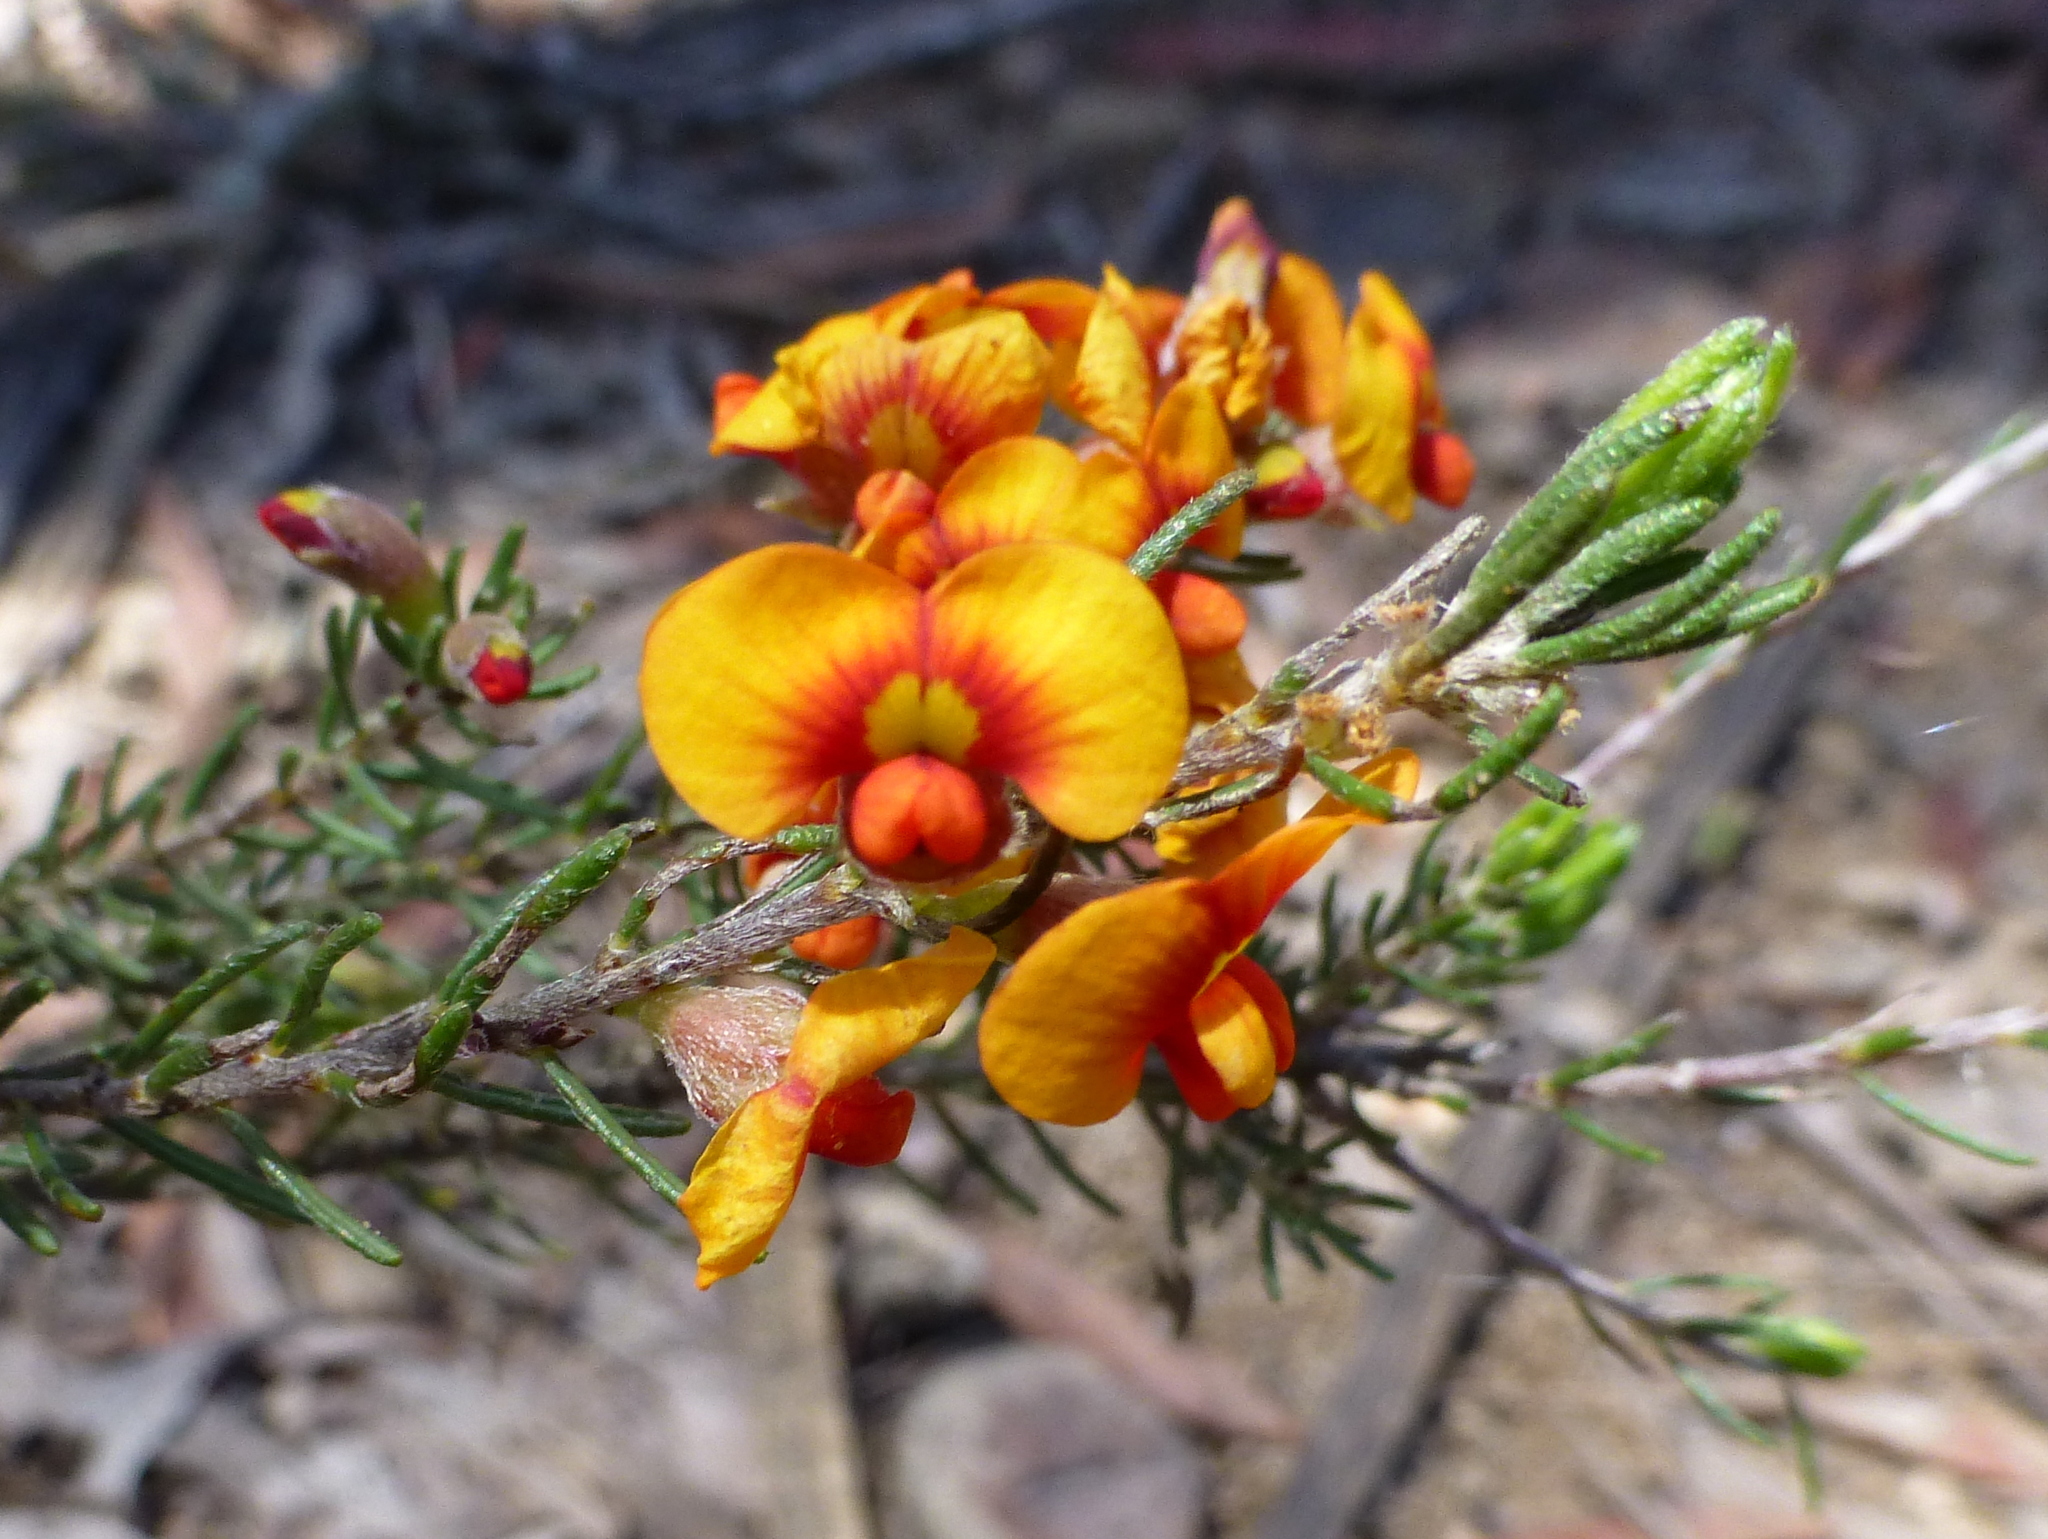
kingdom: Plantae
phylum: Tracheophyta
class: Magnoliopsida
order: Fabales
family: Fabaceae
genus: Dillwynia
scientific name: Dillwynia sericea
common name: Showy parrot-pea
